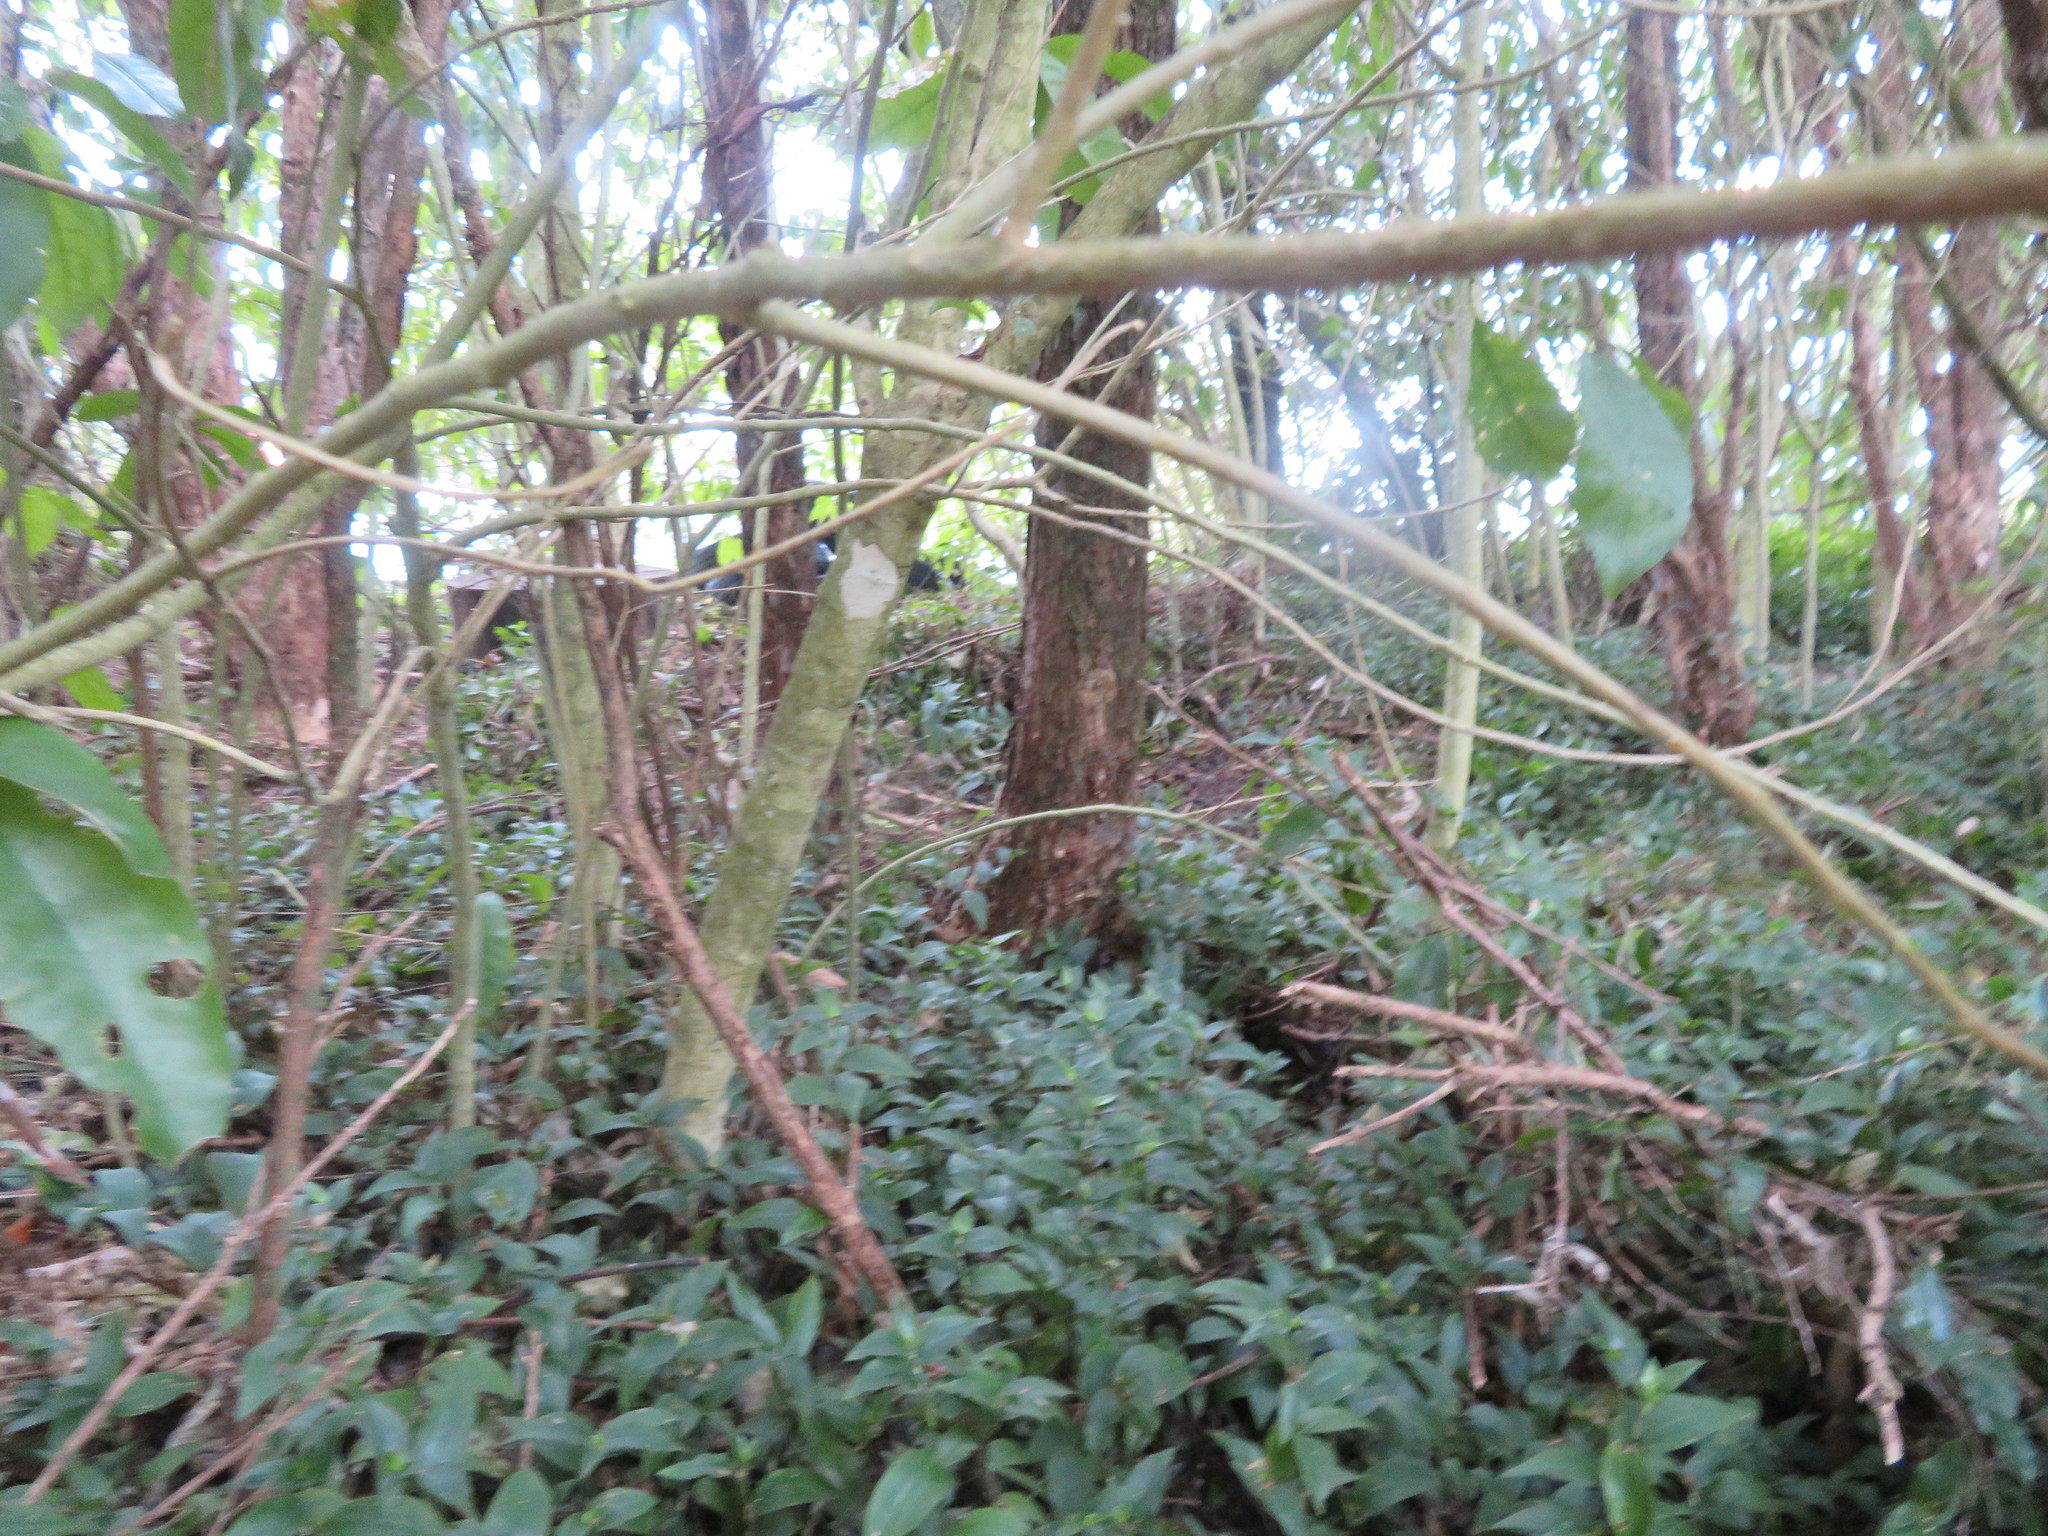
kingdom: Plantae
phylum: Tracheophyta
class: Magnoliopsida
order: Malpighiales
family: Violaceae
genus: Melicytus
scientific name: Melicytus ramiflorus
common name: Mahoe
